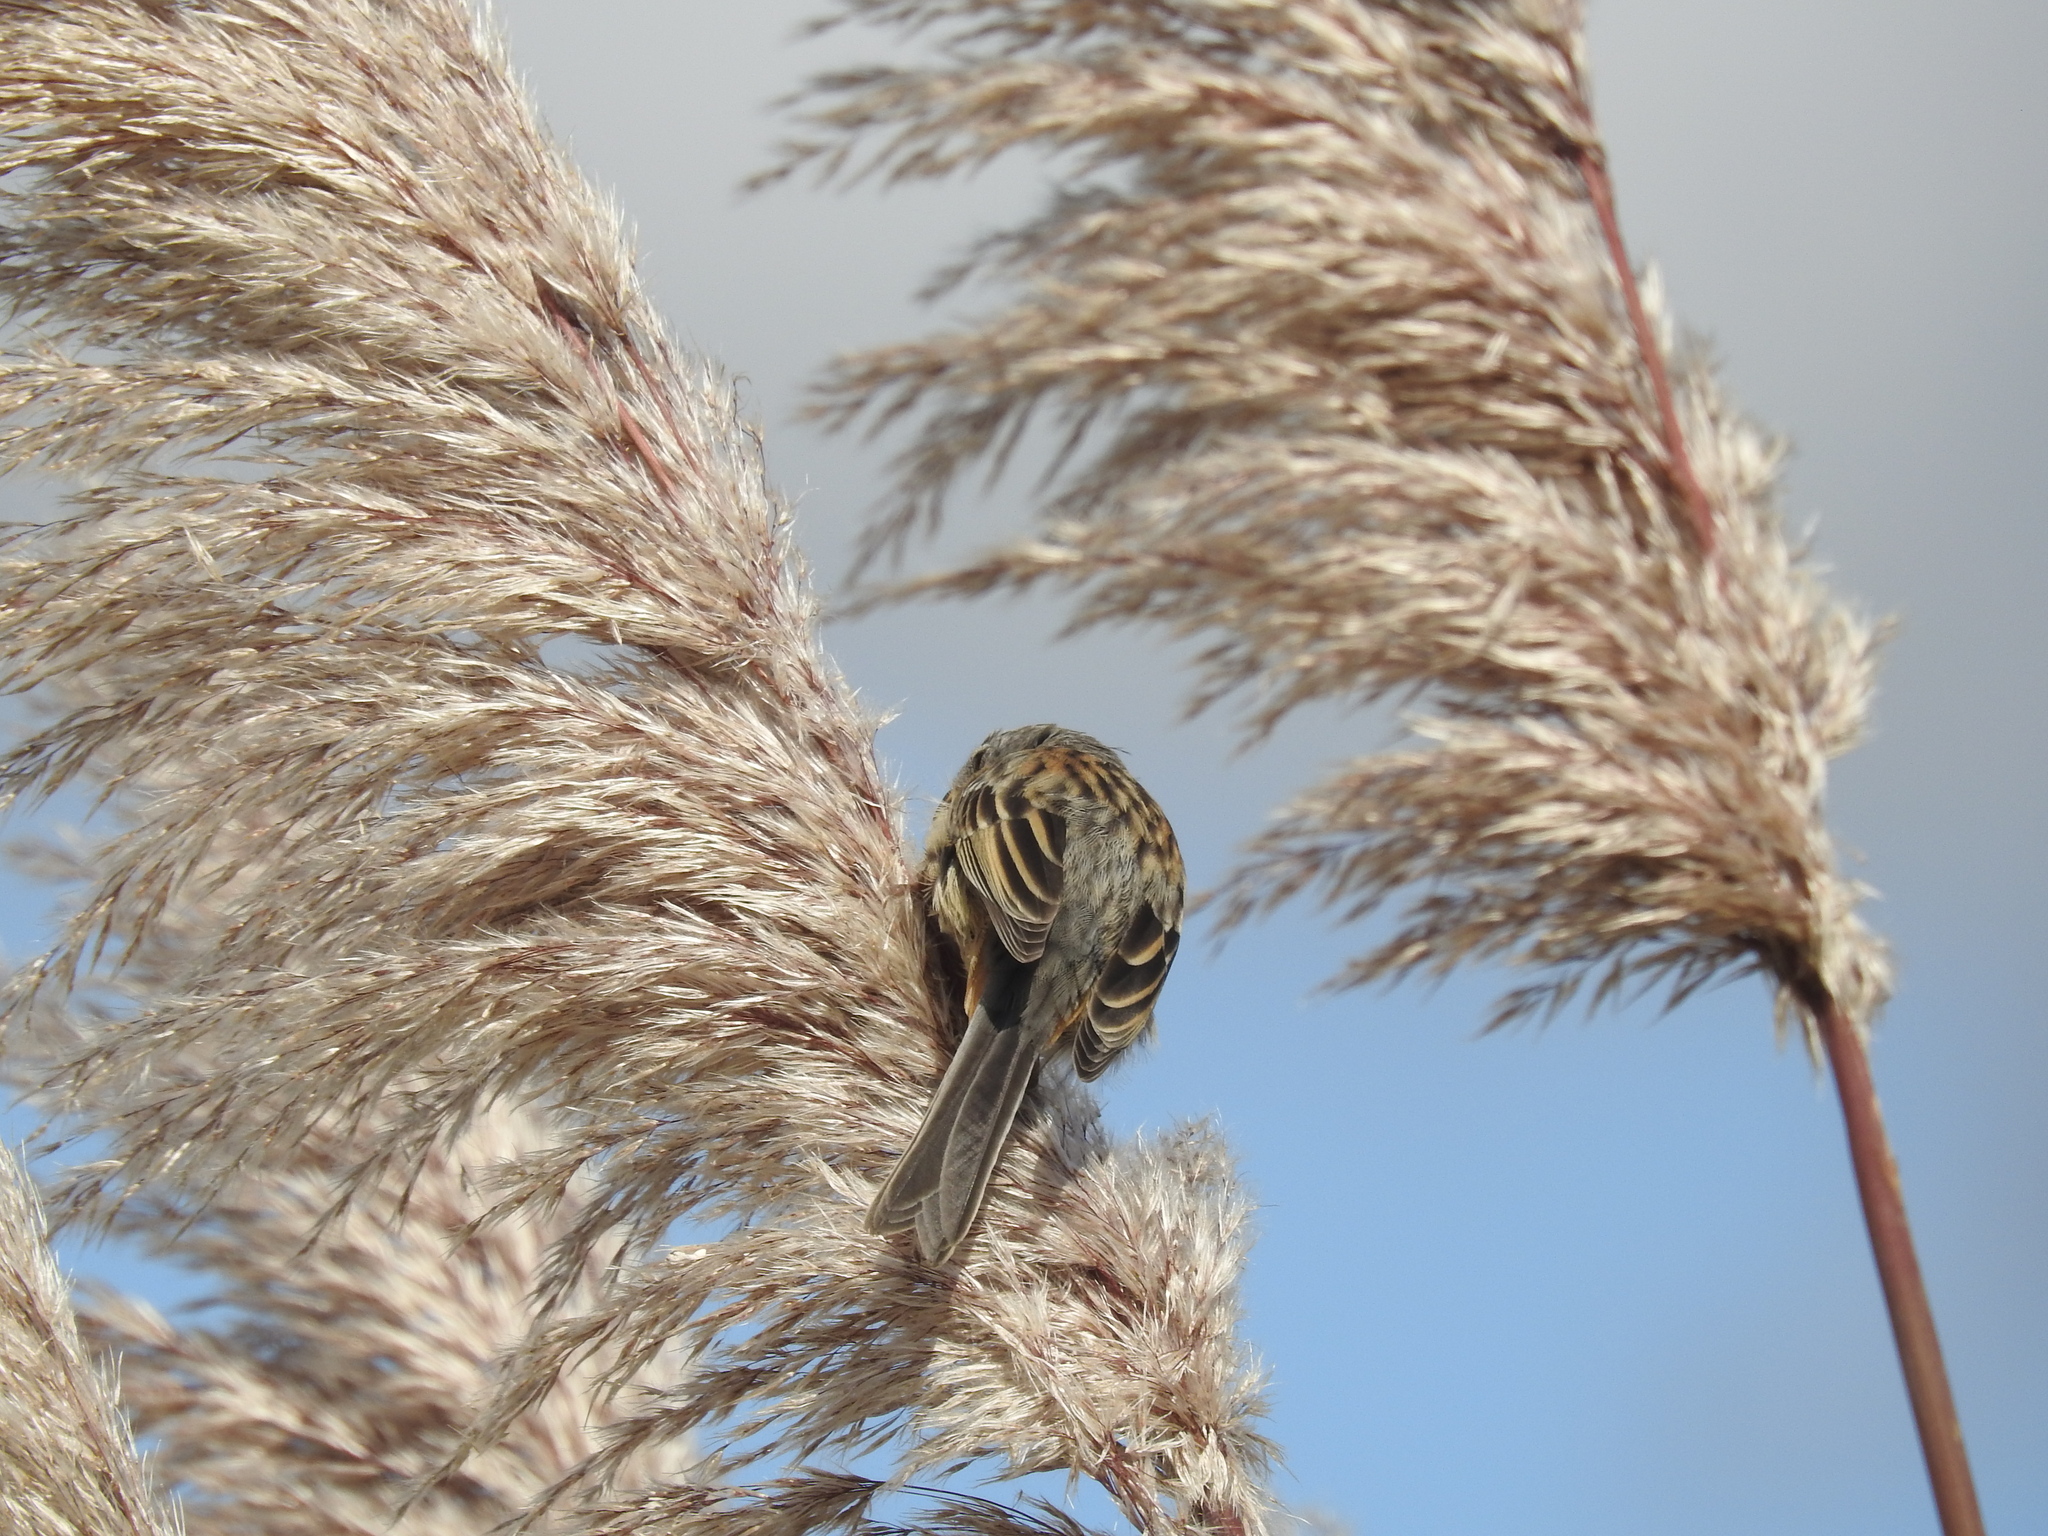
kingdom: Animalia
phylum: Chordata
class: Aves
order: Passeriformes
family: Thraupidae
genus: Catamenia
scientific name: Catamenia inornata
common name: Plain-colored seedeater
